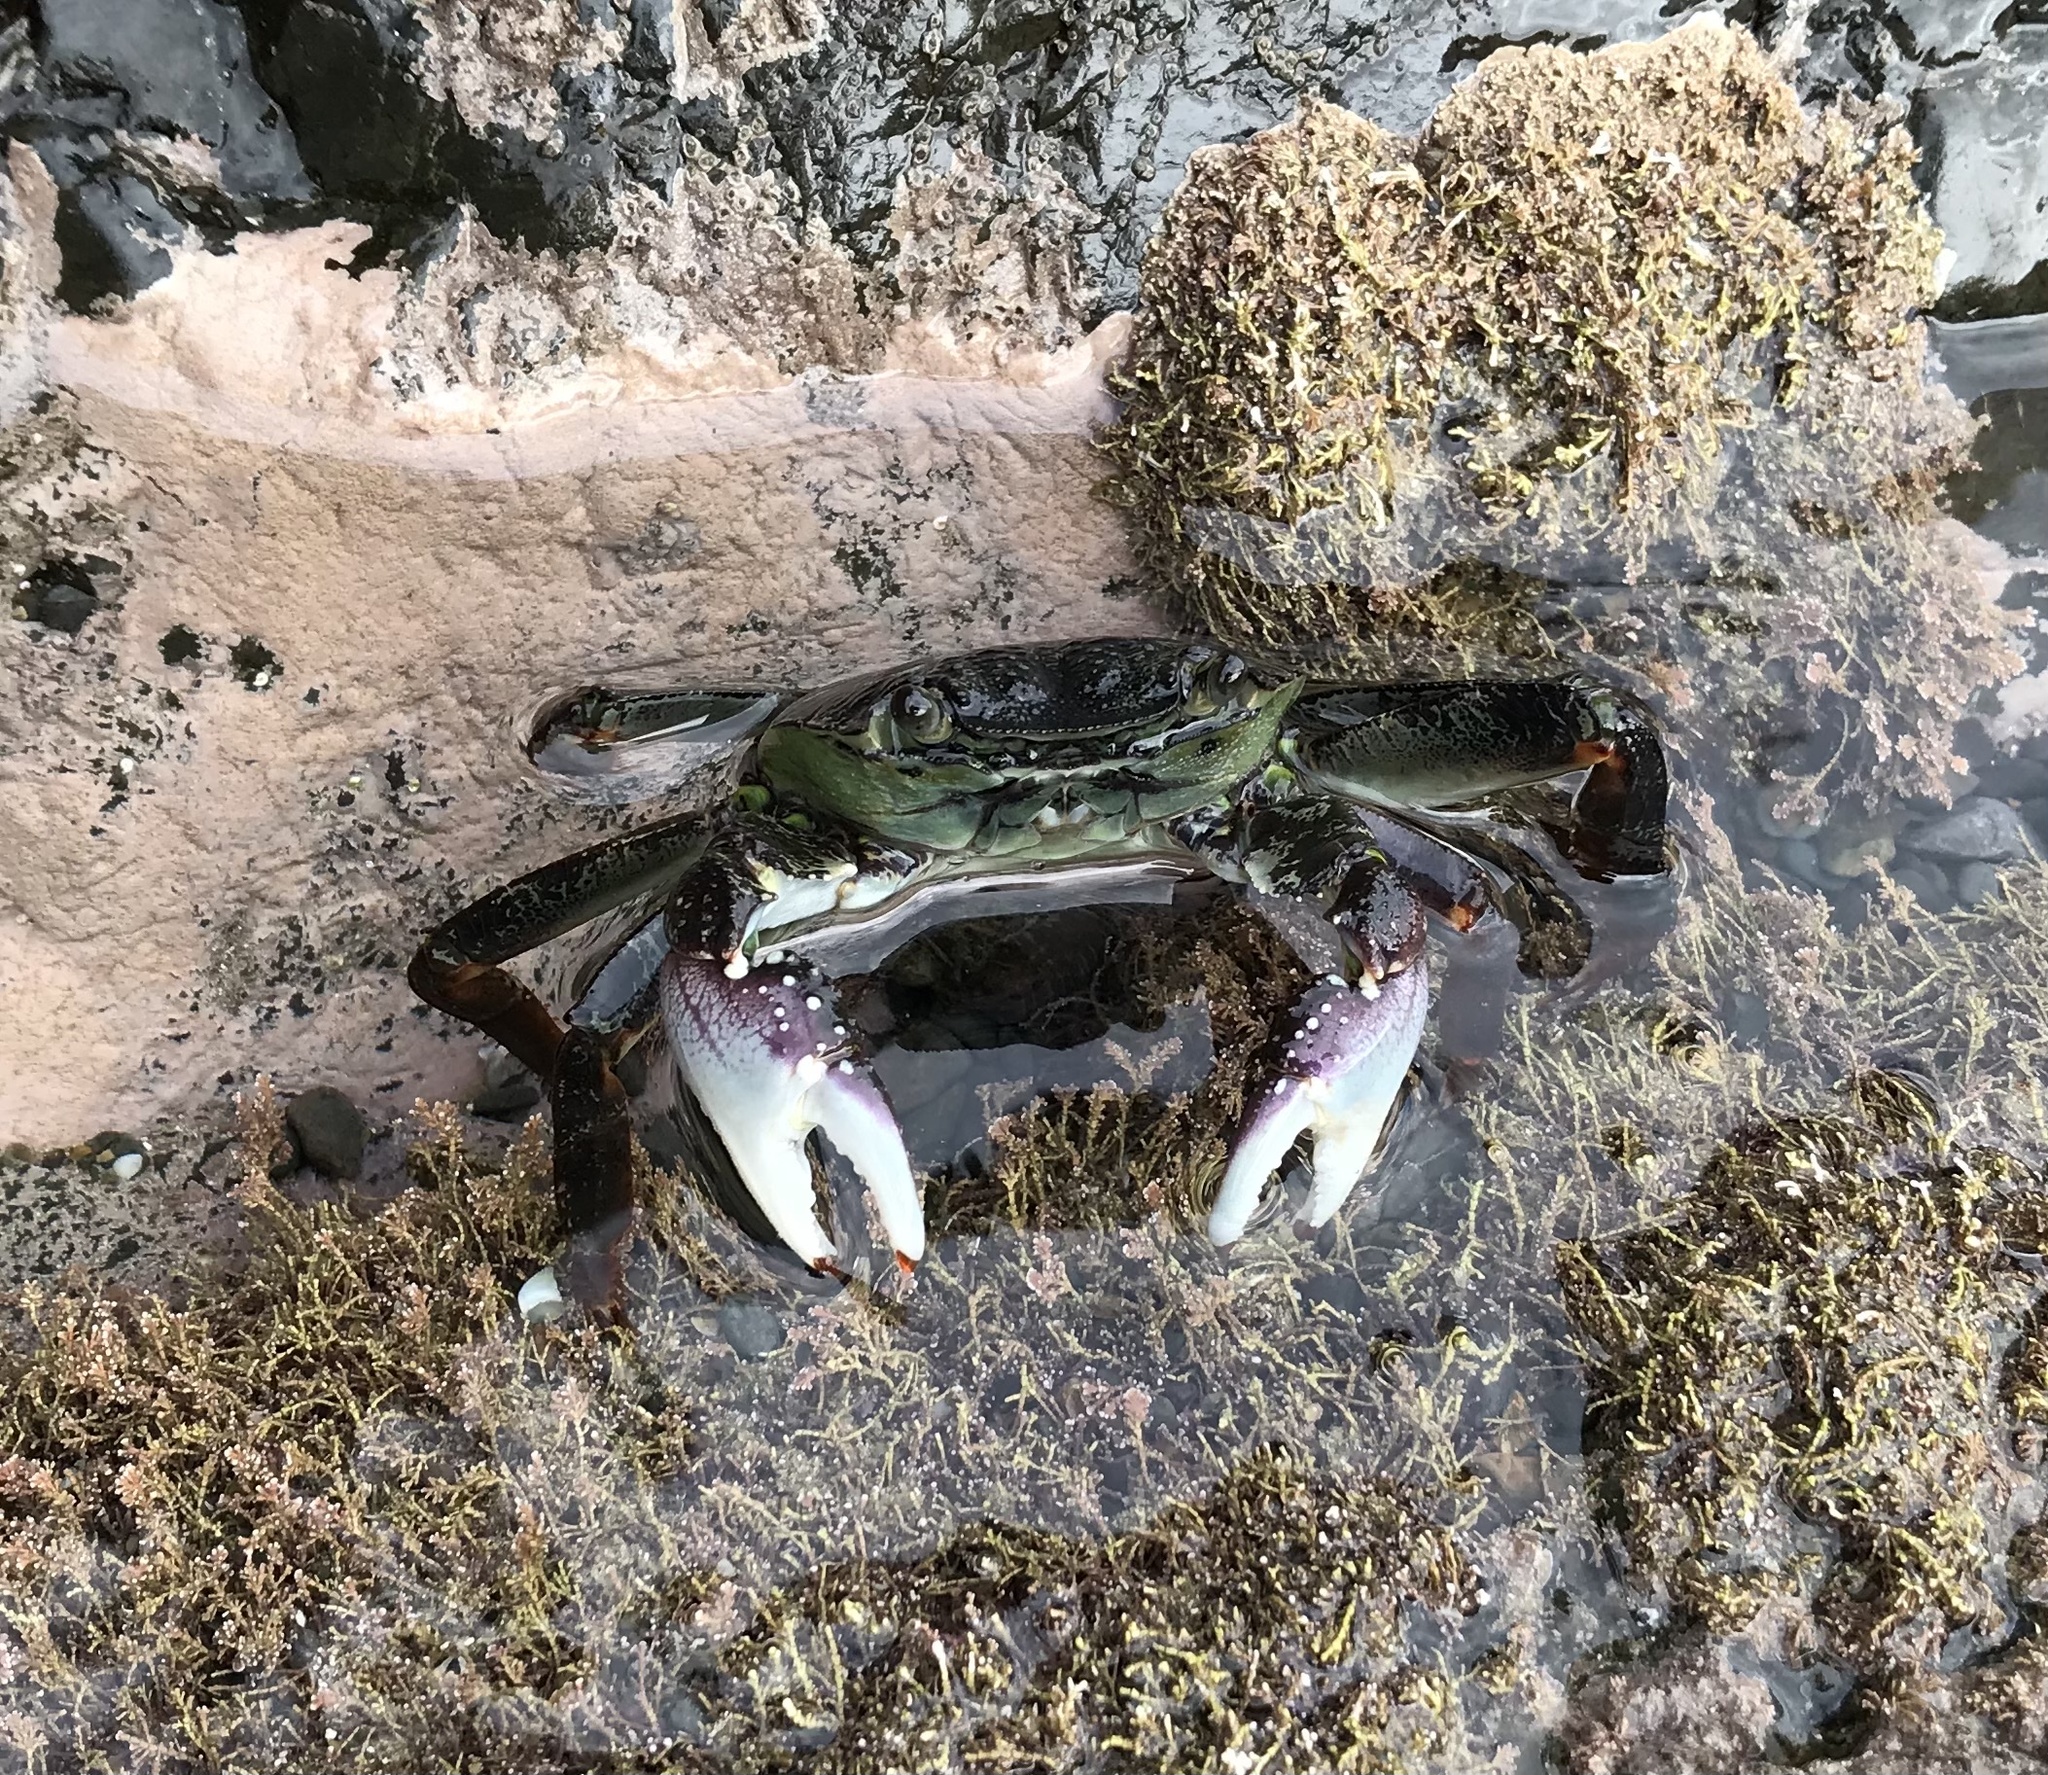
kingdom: Animalia
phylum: Arthropoda
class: Malacostraca
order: Decapoda
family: Grapsidae
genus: Leptograpsus
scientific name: Leptograpsus variegatus
